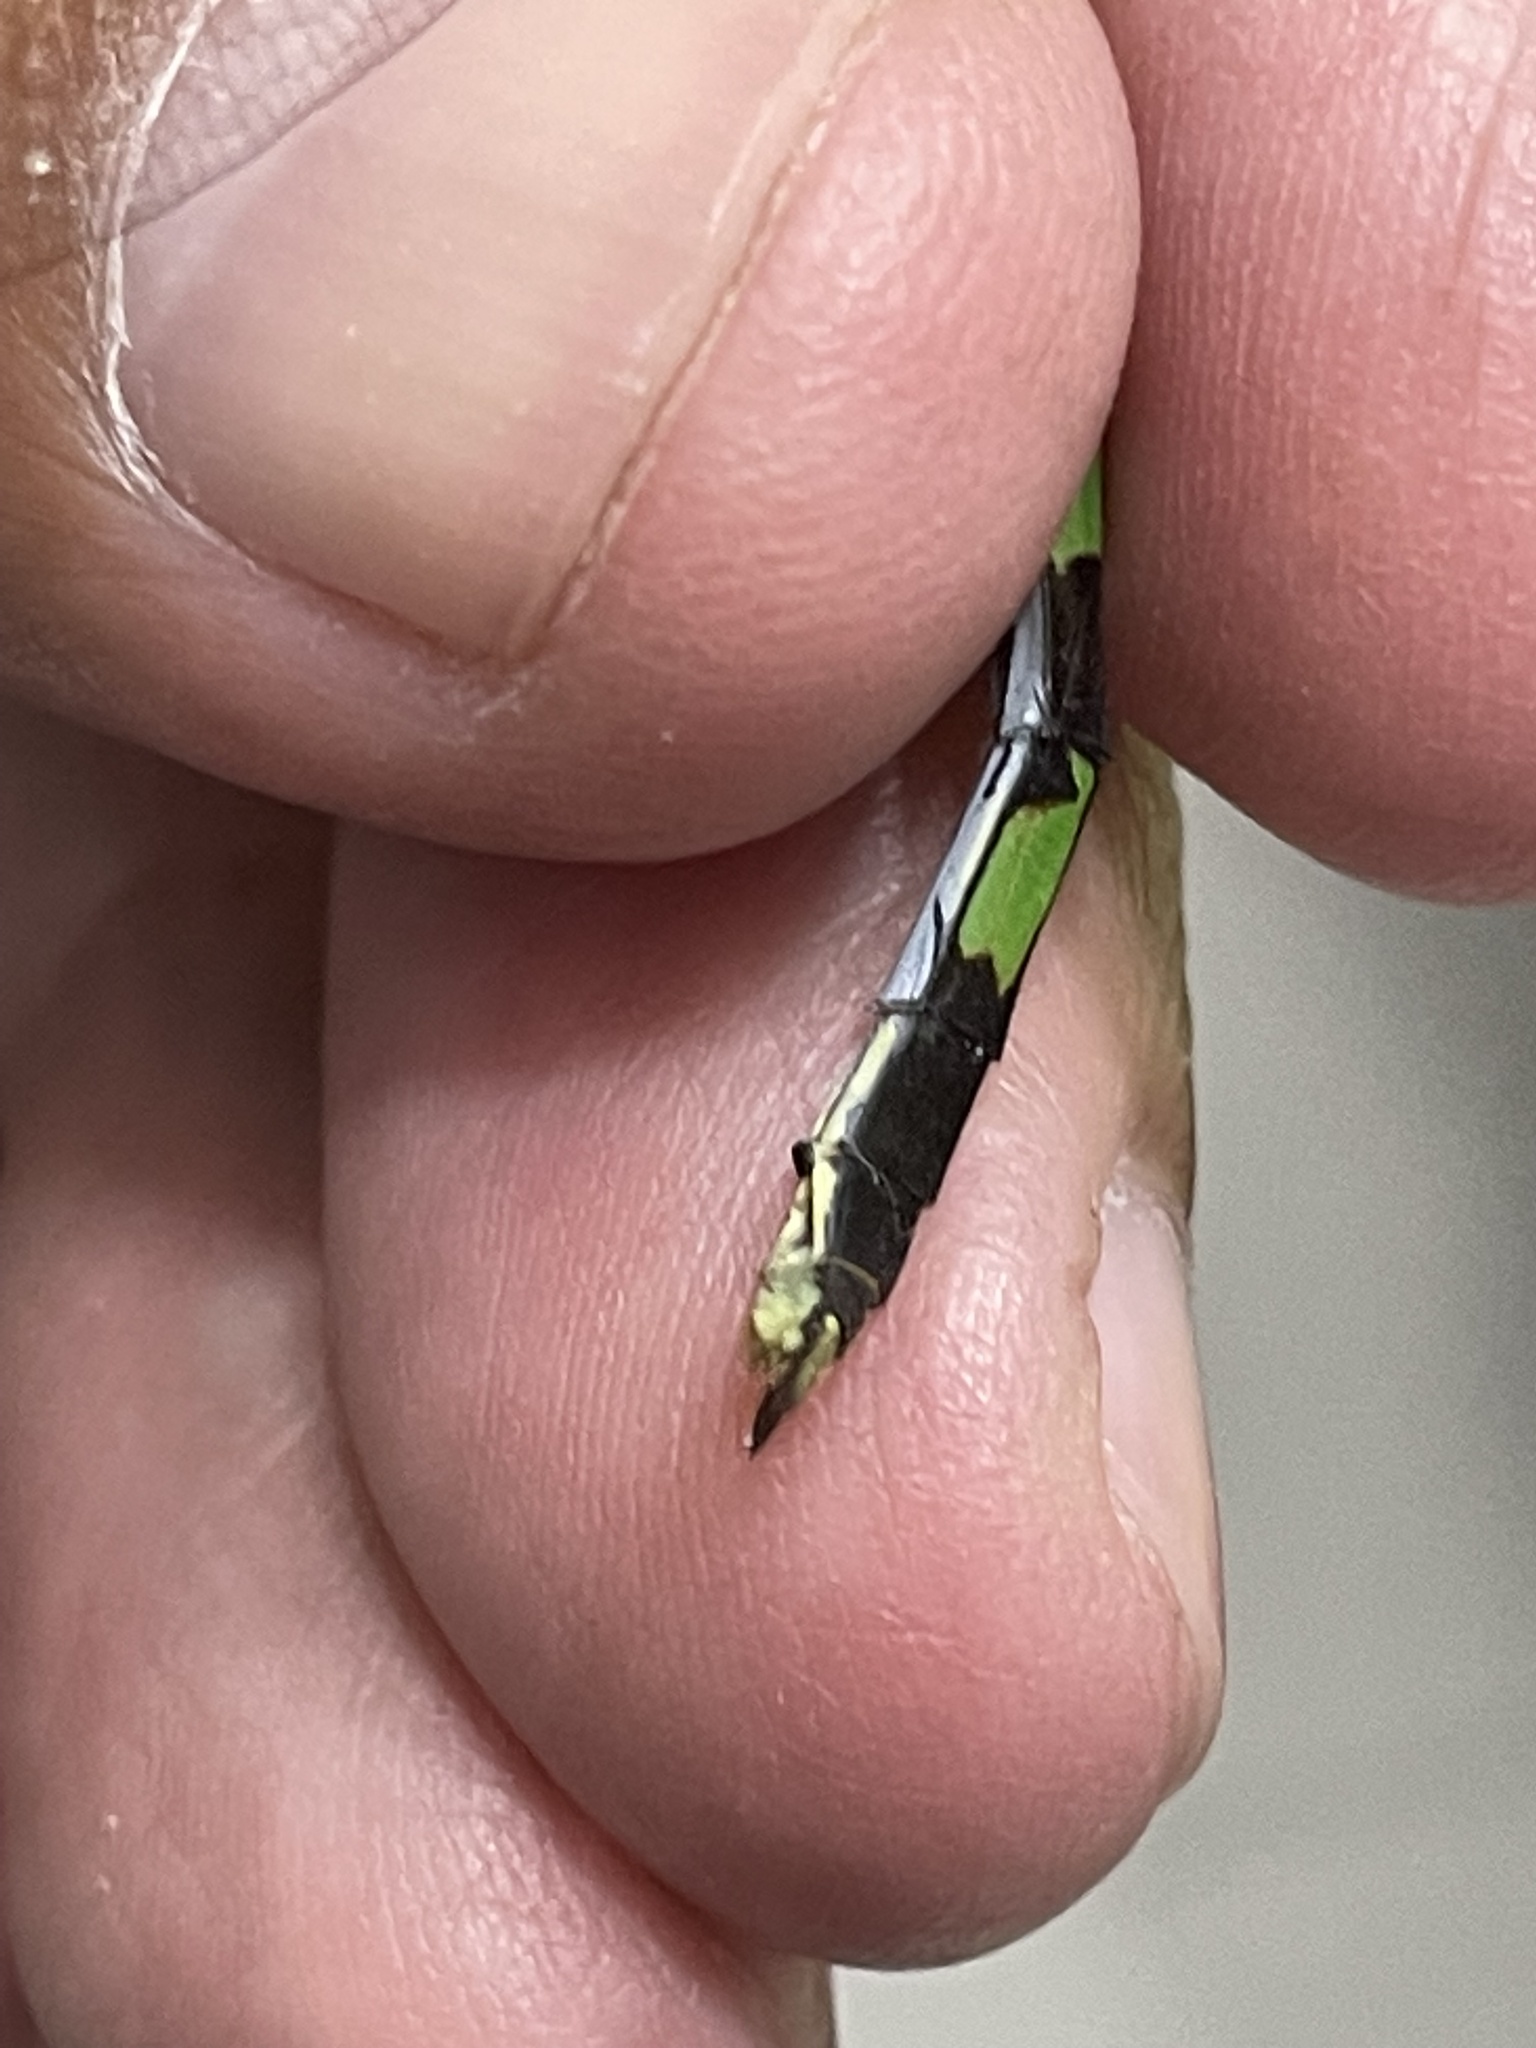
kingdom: Animalia
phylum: Arthropoda
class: Insecta
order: Odonata
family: Libellulidae
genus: Erythemis
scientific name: Erythemis vesiculosa
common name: Great pondhawk
